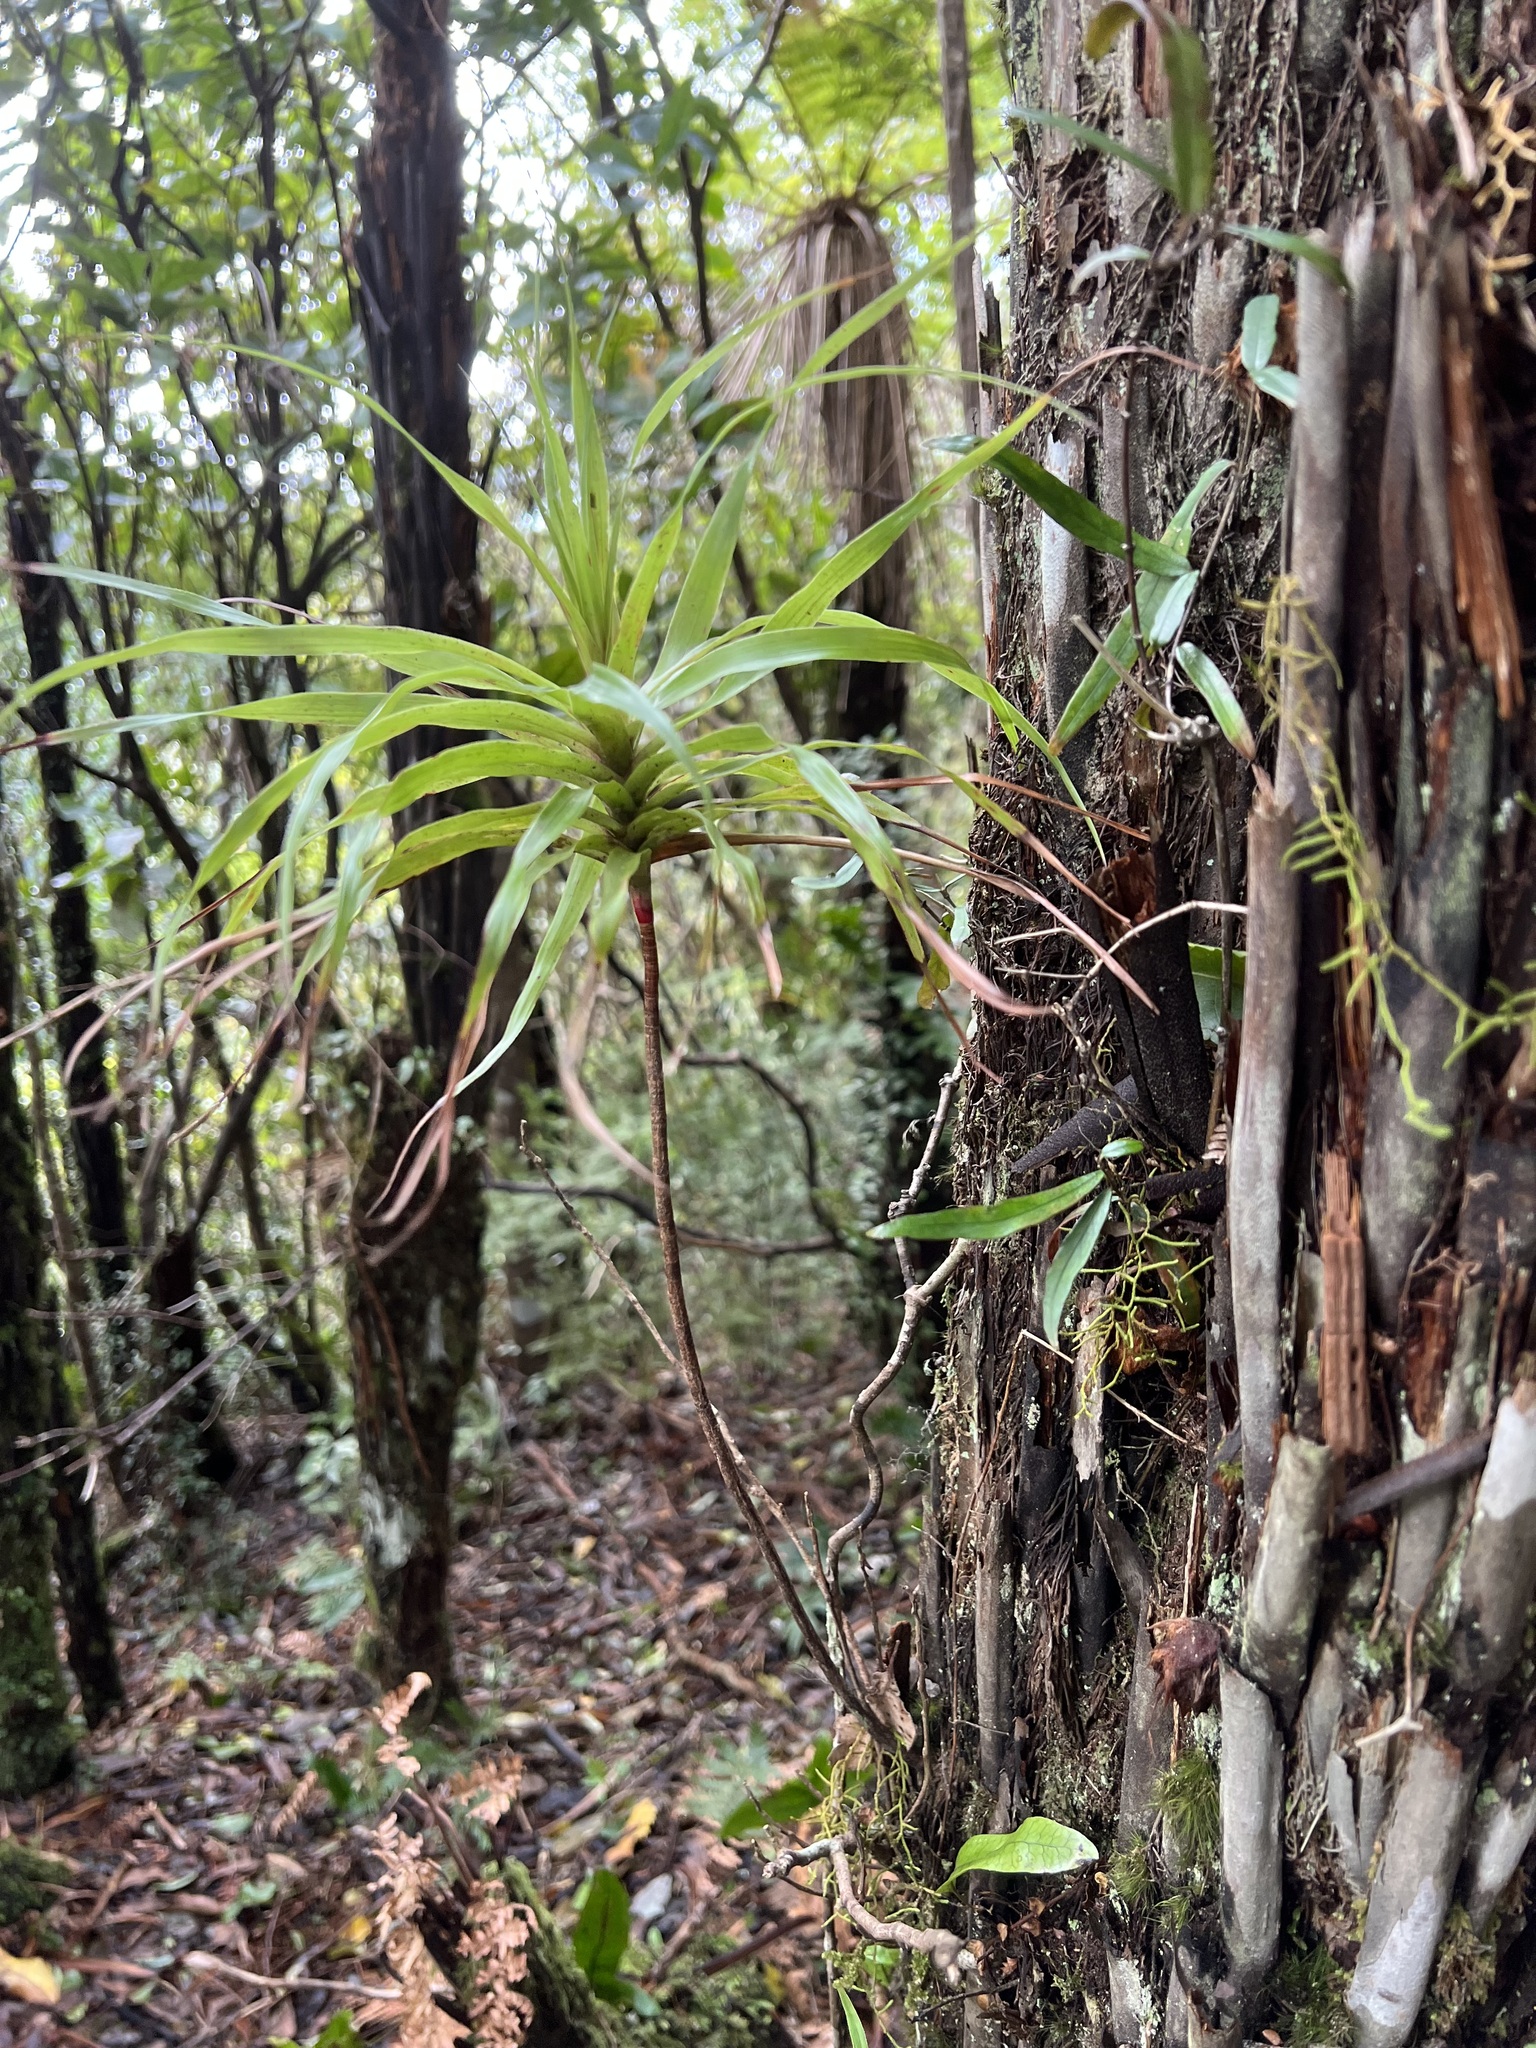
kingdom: Plantae
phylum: Tracheophyta
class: Magnoliopsida
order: Ericales
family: Ericaceae
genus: Dracophyllum
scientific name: Dracophyllum latifolium
